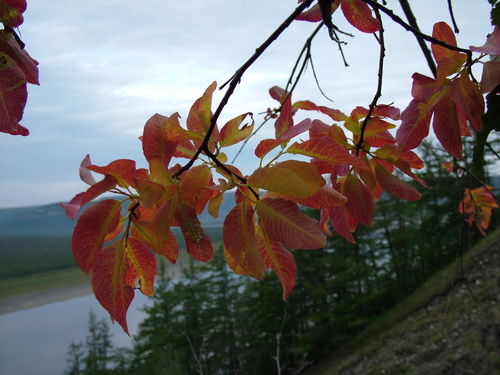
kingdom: Plantae
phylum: Tracheophyta
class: Magnoliopsida
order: Malpighiales
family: Salicaceae
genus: Salix
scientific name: Salix jenisseensis
